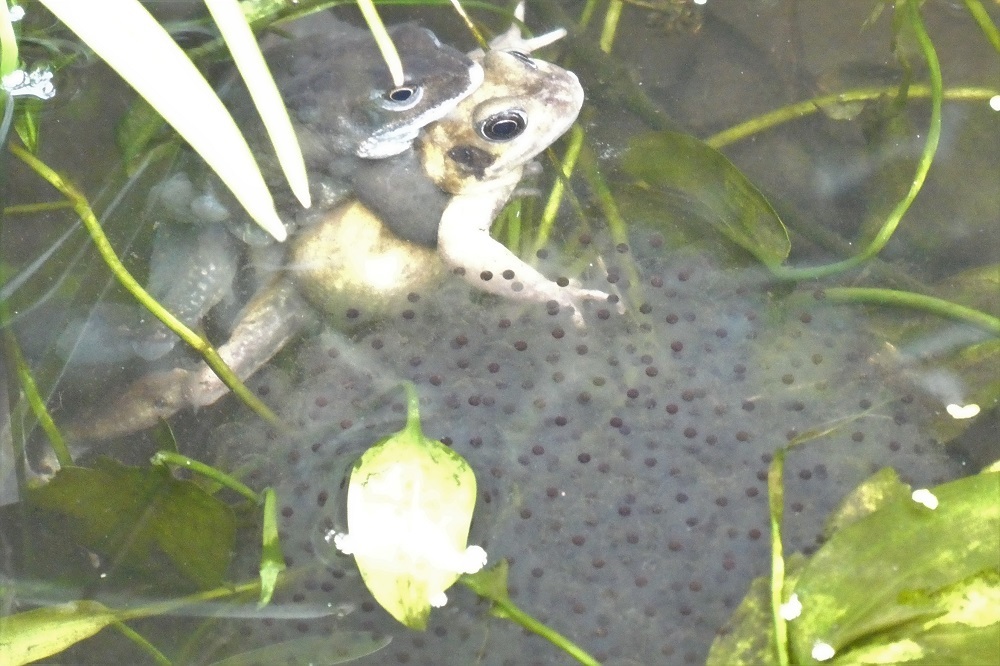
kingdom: Animalia
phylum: Chordata
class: Amphibia
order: Anura
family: Ranidae
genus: Rana
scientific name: Rana temporaria
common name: Common frog
